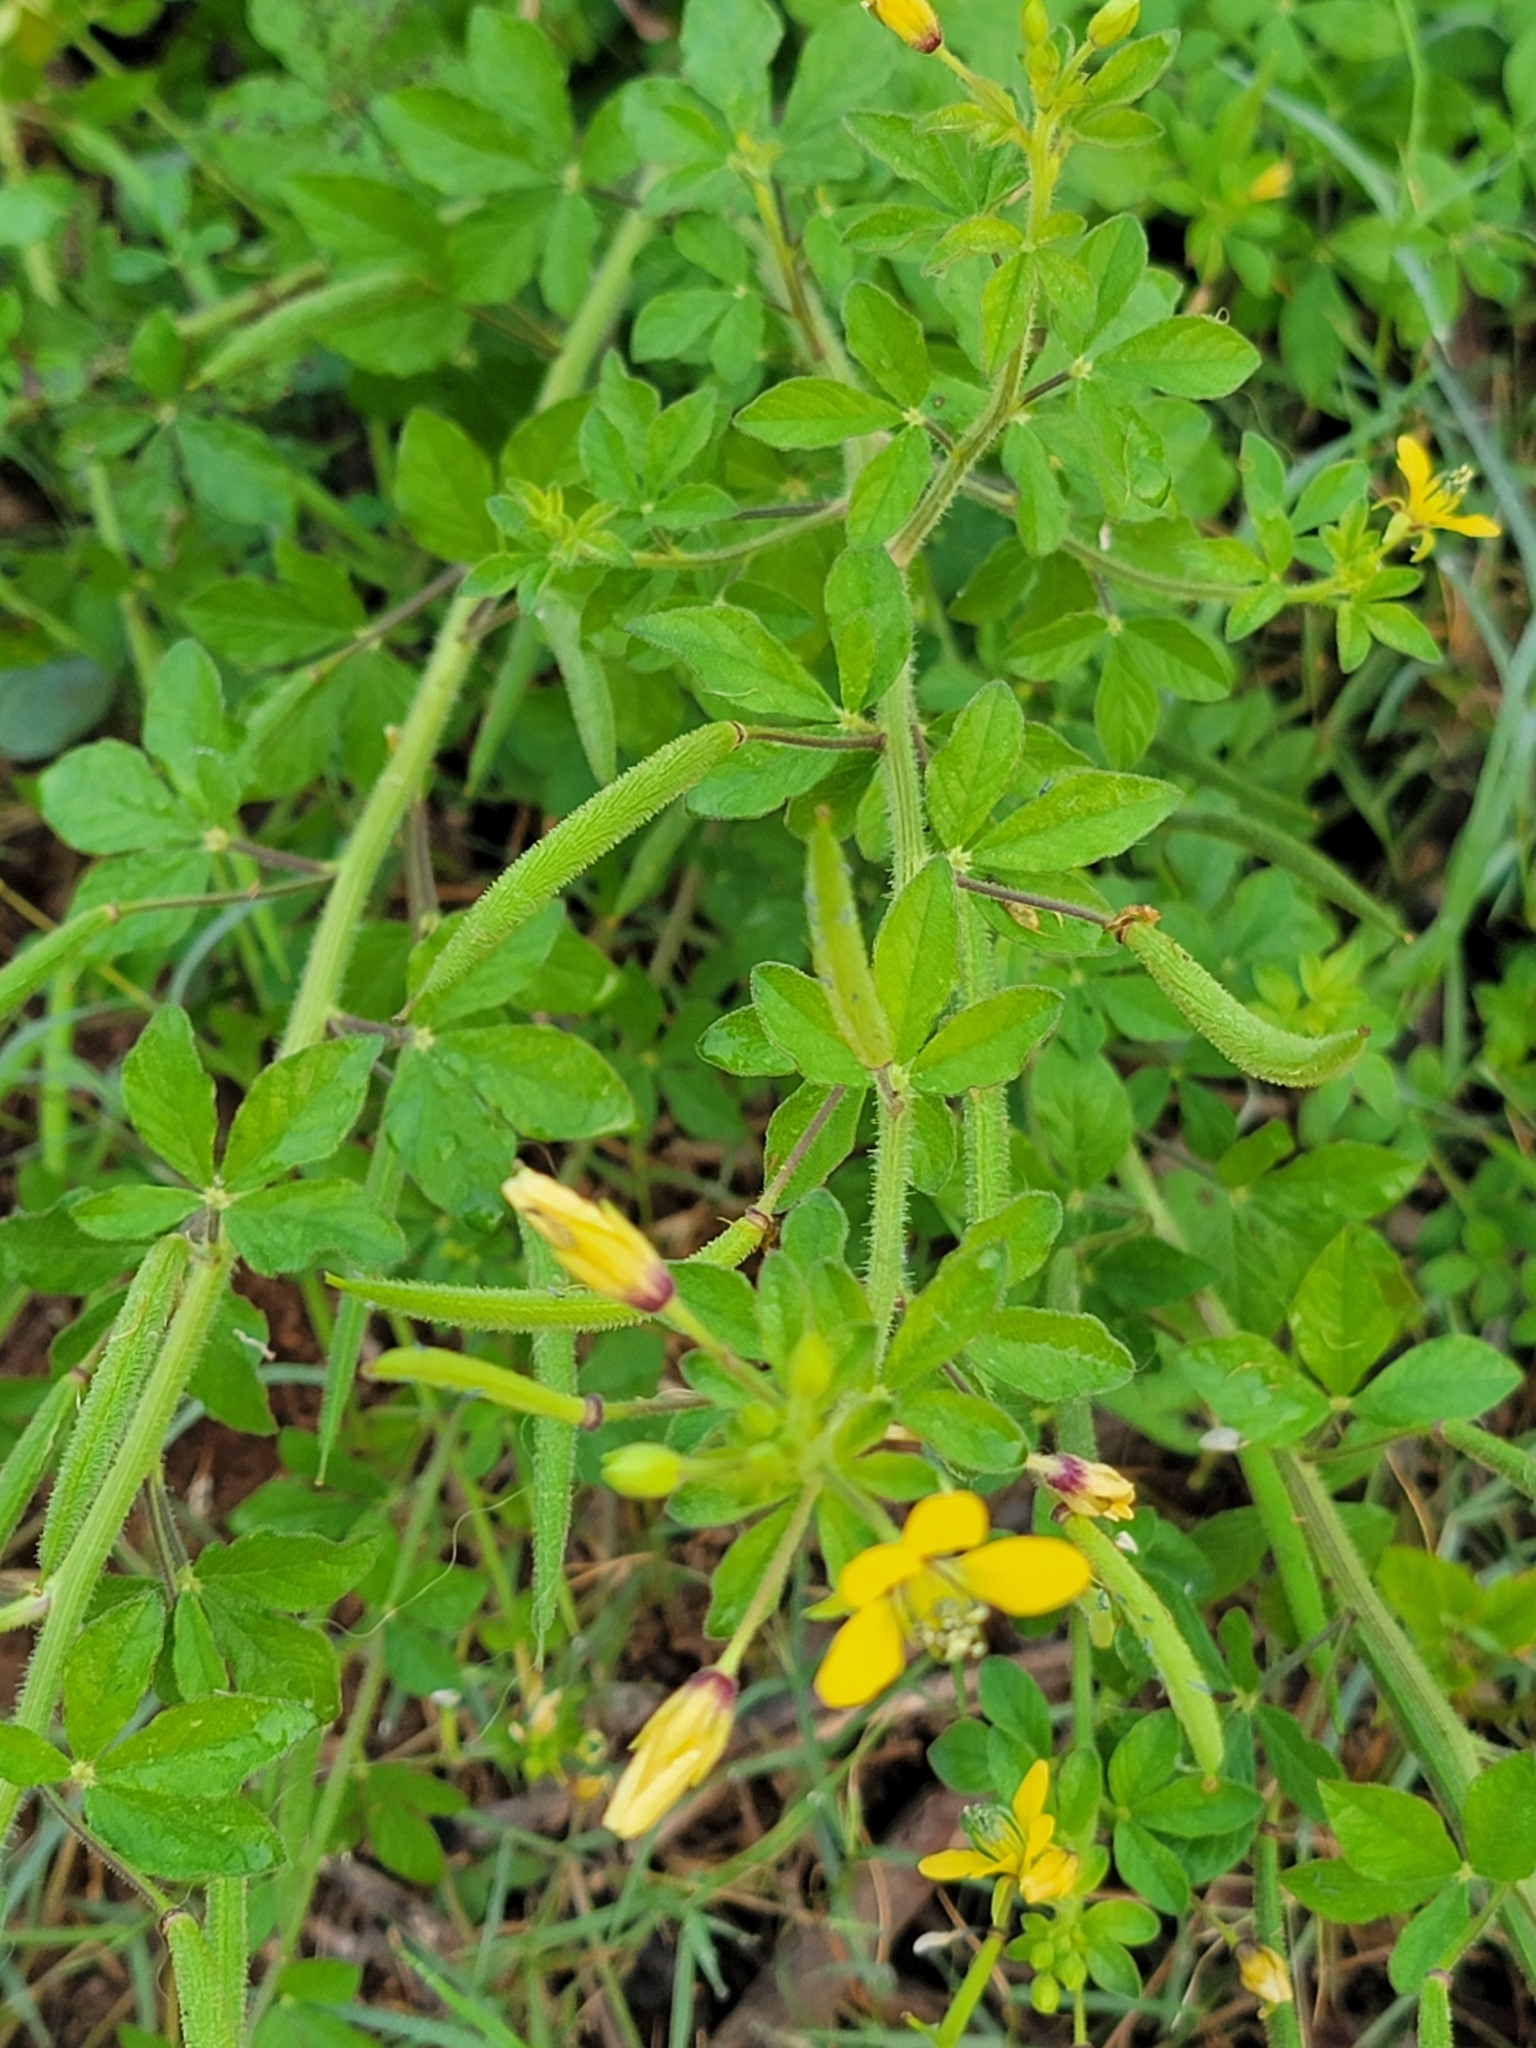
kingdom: Plantae
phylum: Tracheophyta
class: Magnoliopsida
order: Brassicales
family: Cleomaceae
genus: Arivela
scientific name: Arivela viscosa
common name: Asian spiderflower
